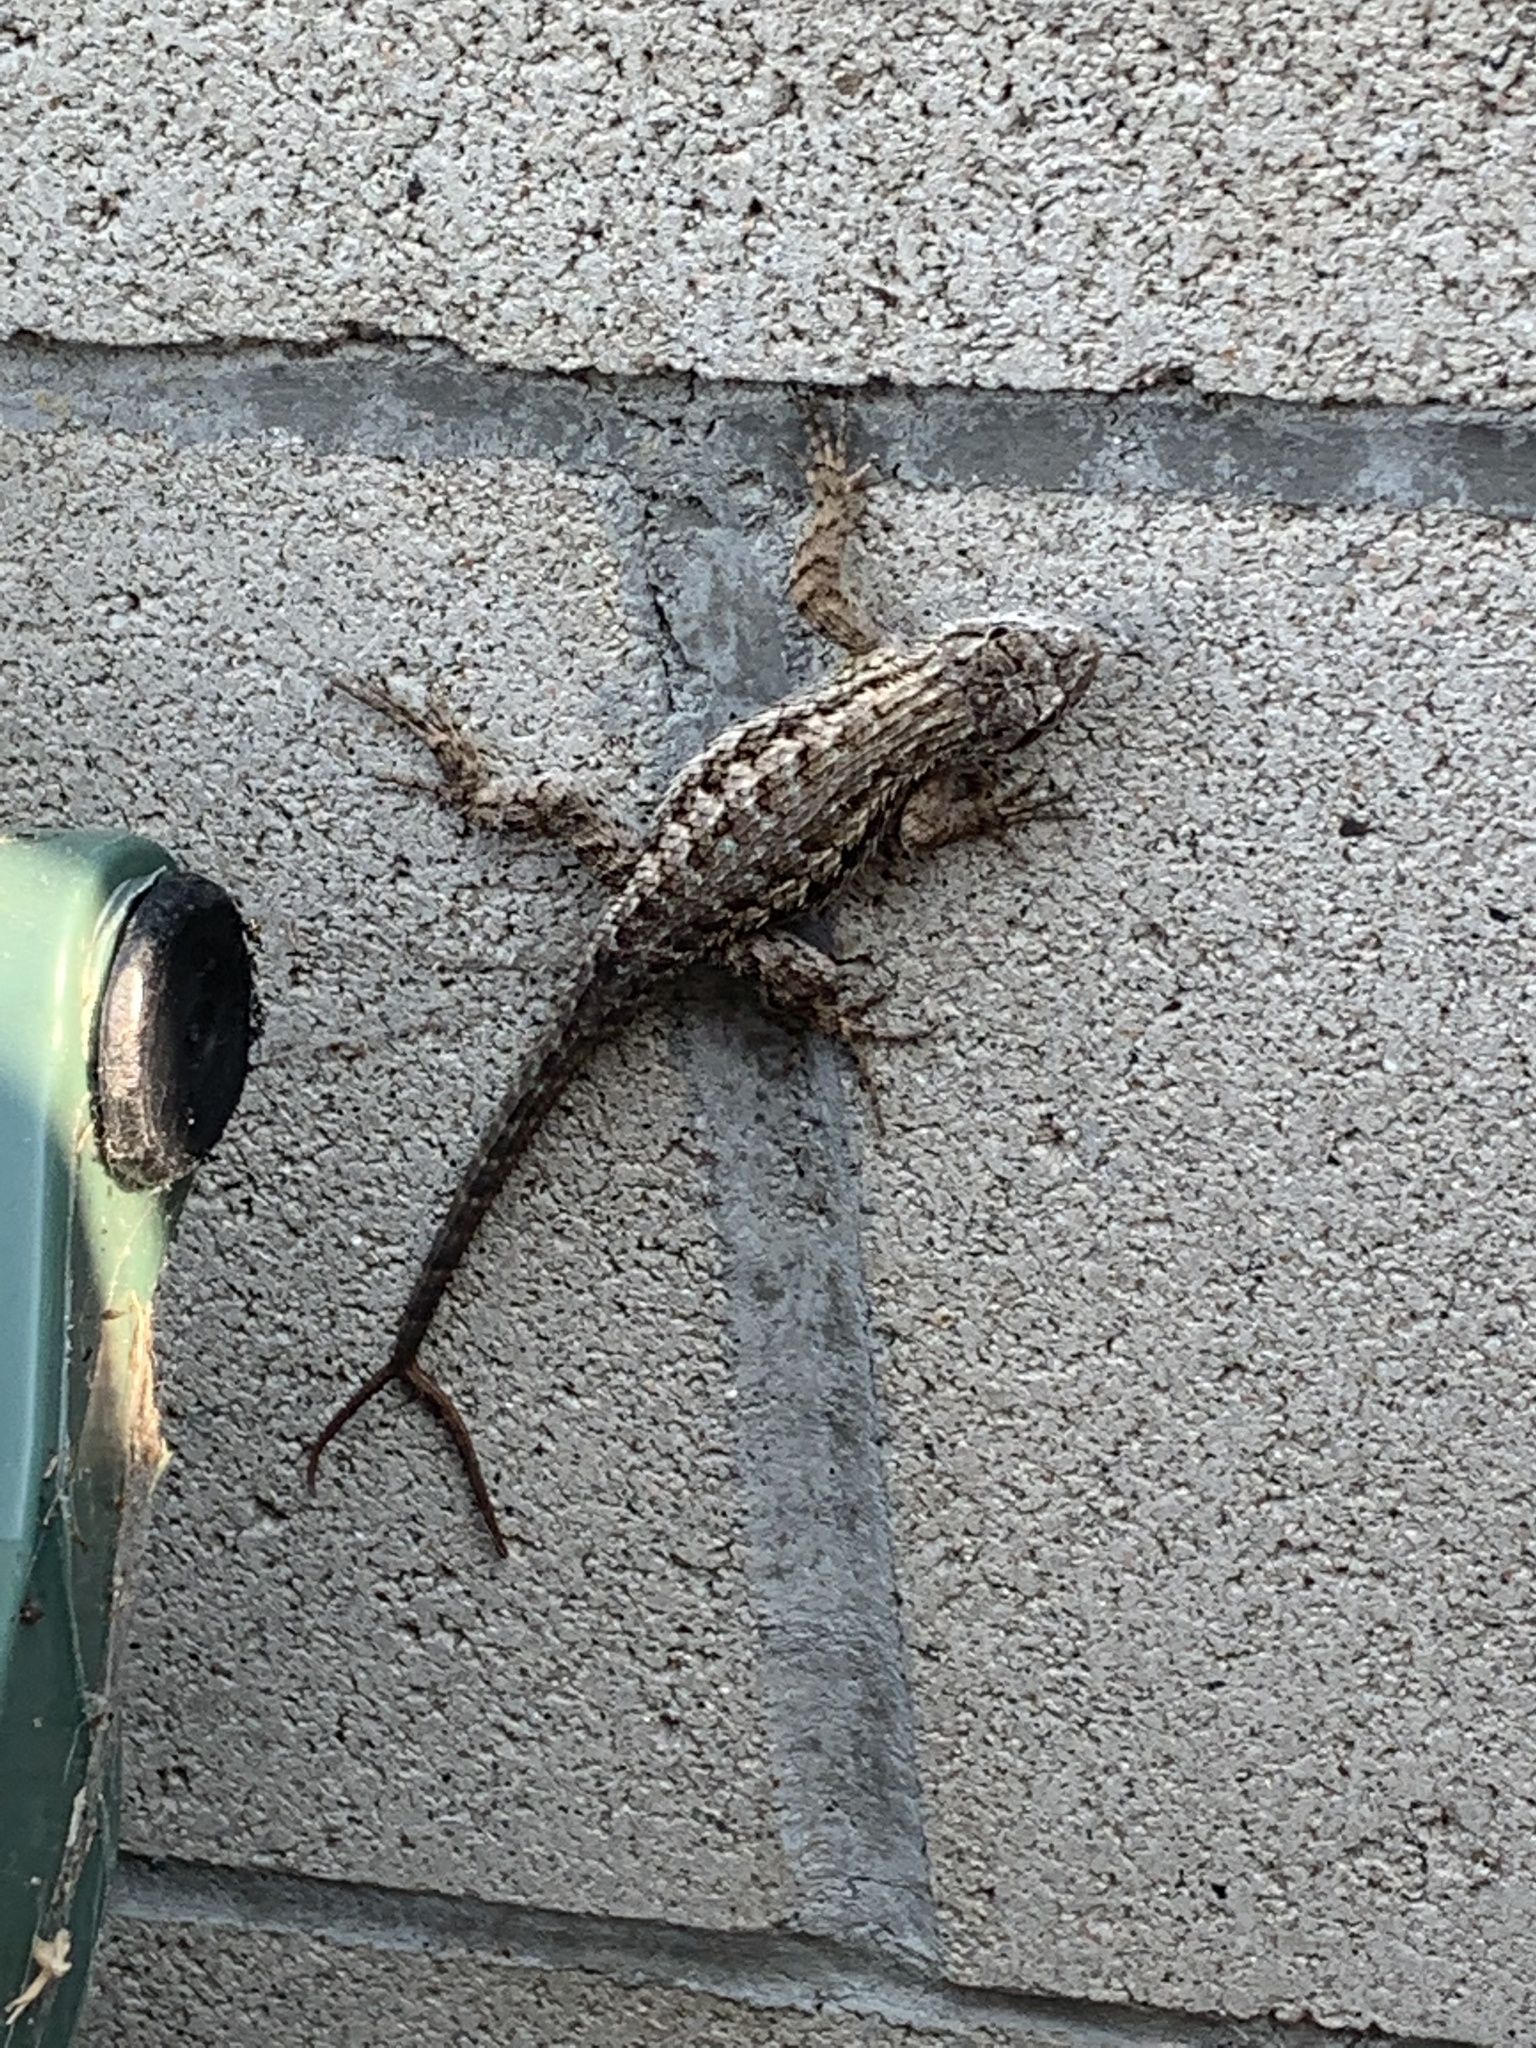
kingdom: Animalia
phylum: Chordata
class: Squamata
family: Phrynosomatidae
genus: Sceloporus
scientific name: Sceloporus occidentalis
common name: Western fence lizard
